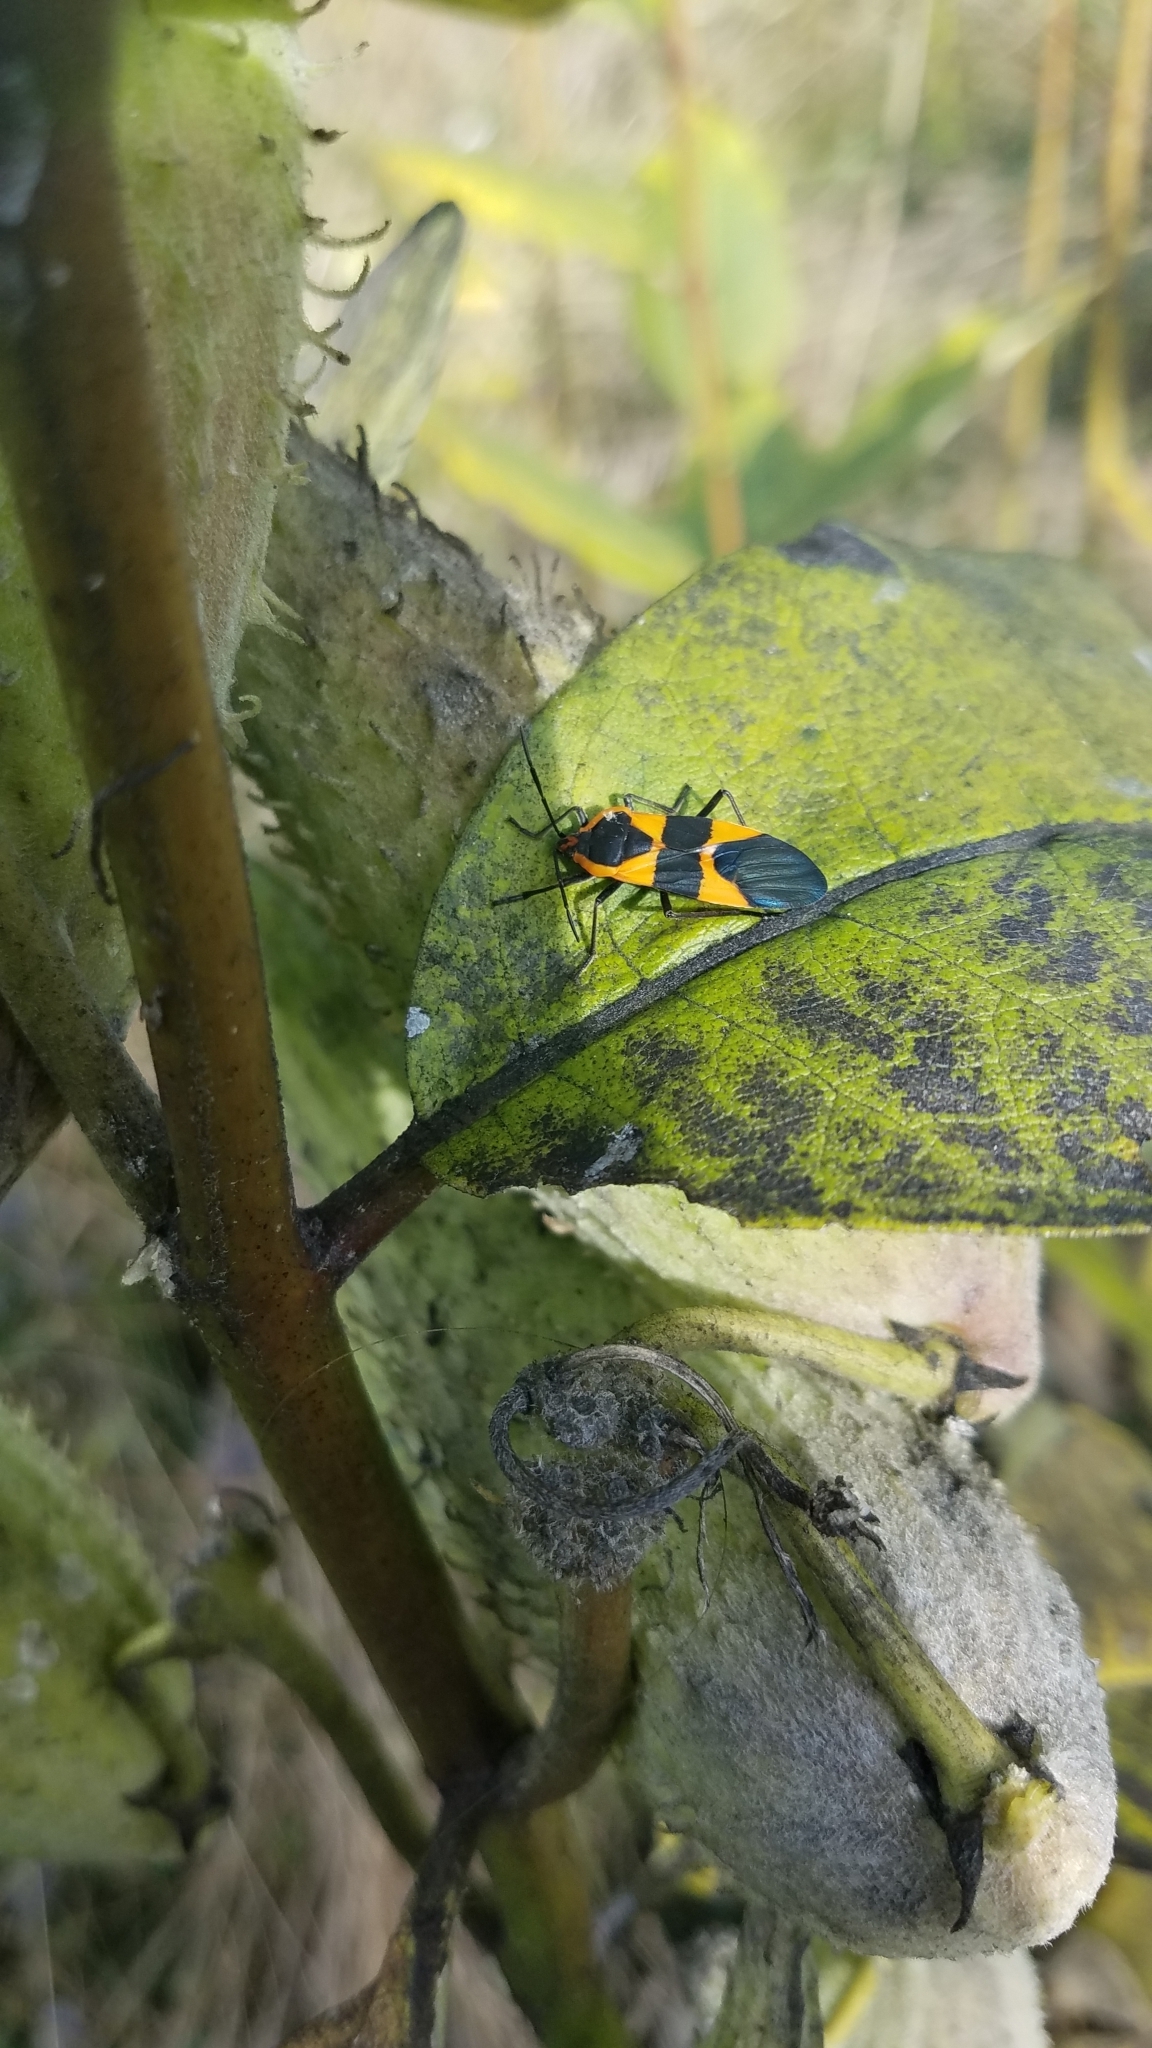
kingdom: Animalia
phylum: Arthropoda
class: Insecta
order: Hemiptera
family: Lygaeidae
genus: Oncopeltus
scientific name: Oncopeltus fasciatus
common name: Large milkweed bug
